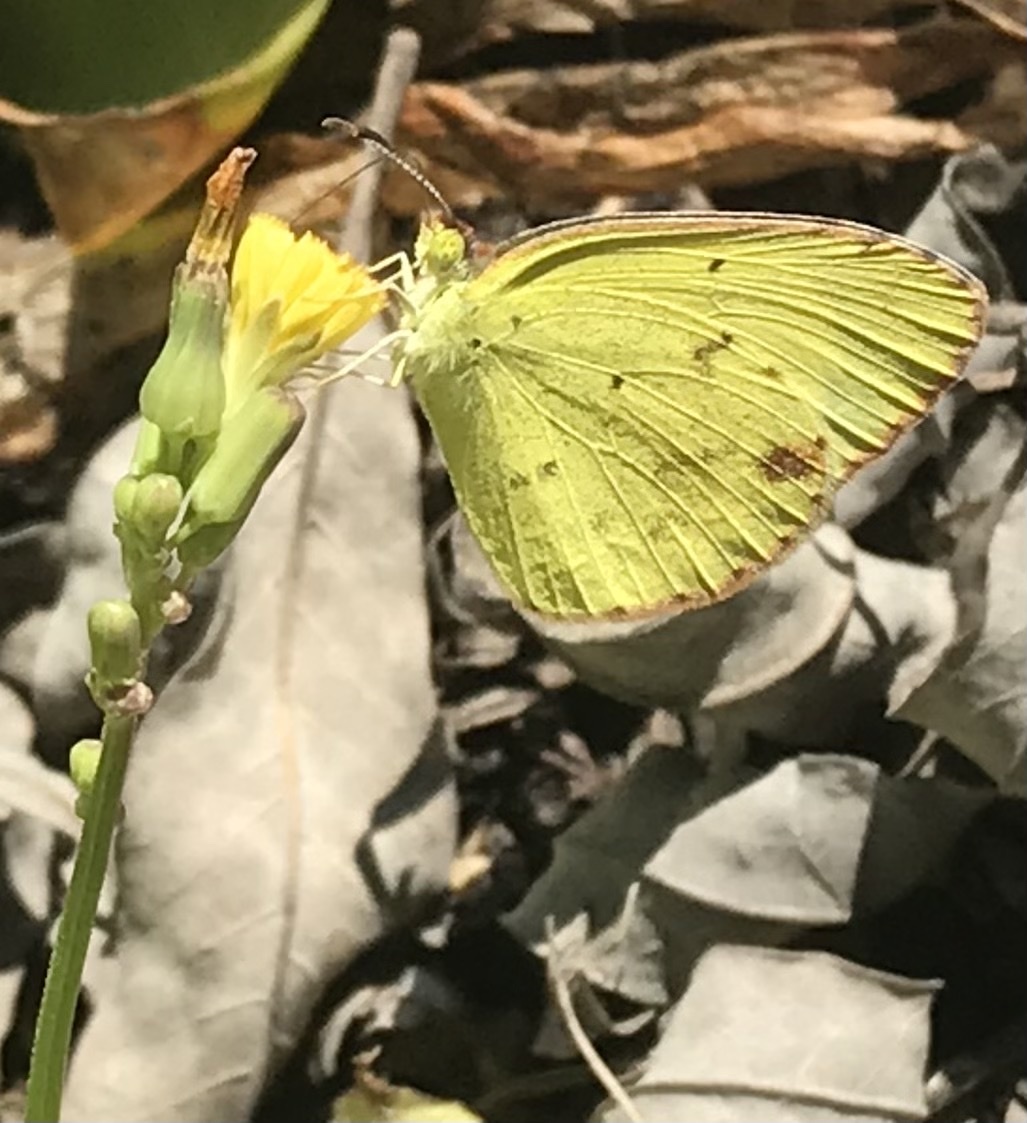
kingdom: Animalia
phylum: Arthropoda
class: Insecta
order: Lepidoptera
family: Pieridae
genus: Pyrisitia
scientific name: Pyrisitia lisa
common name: Little yellow
